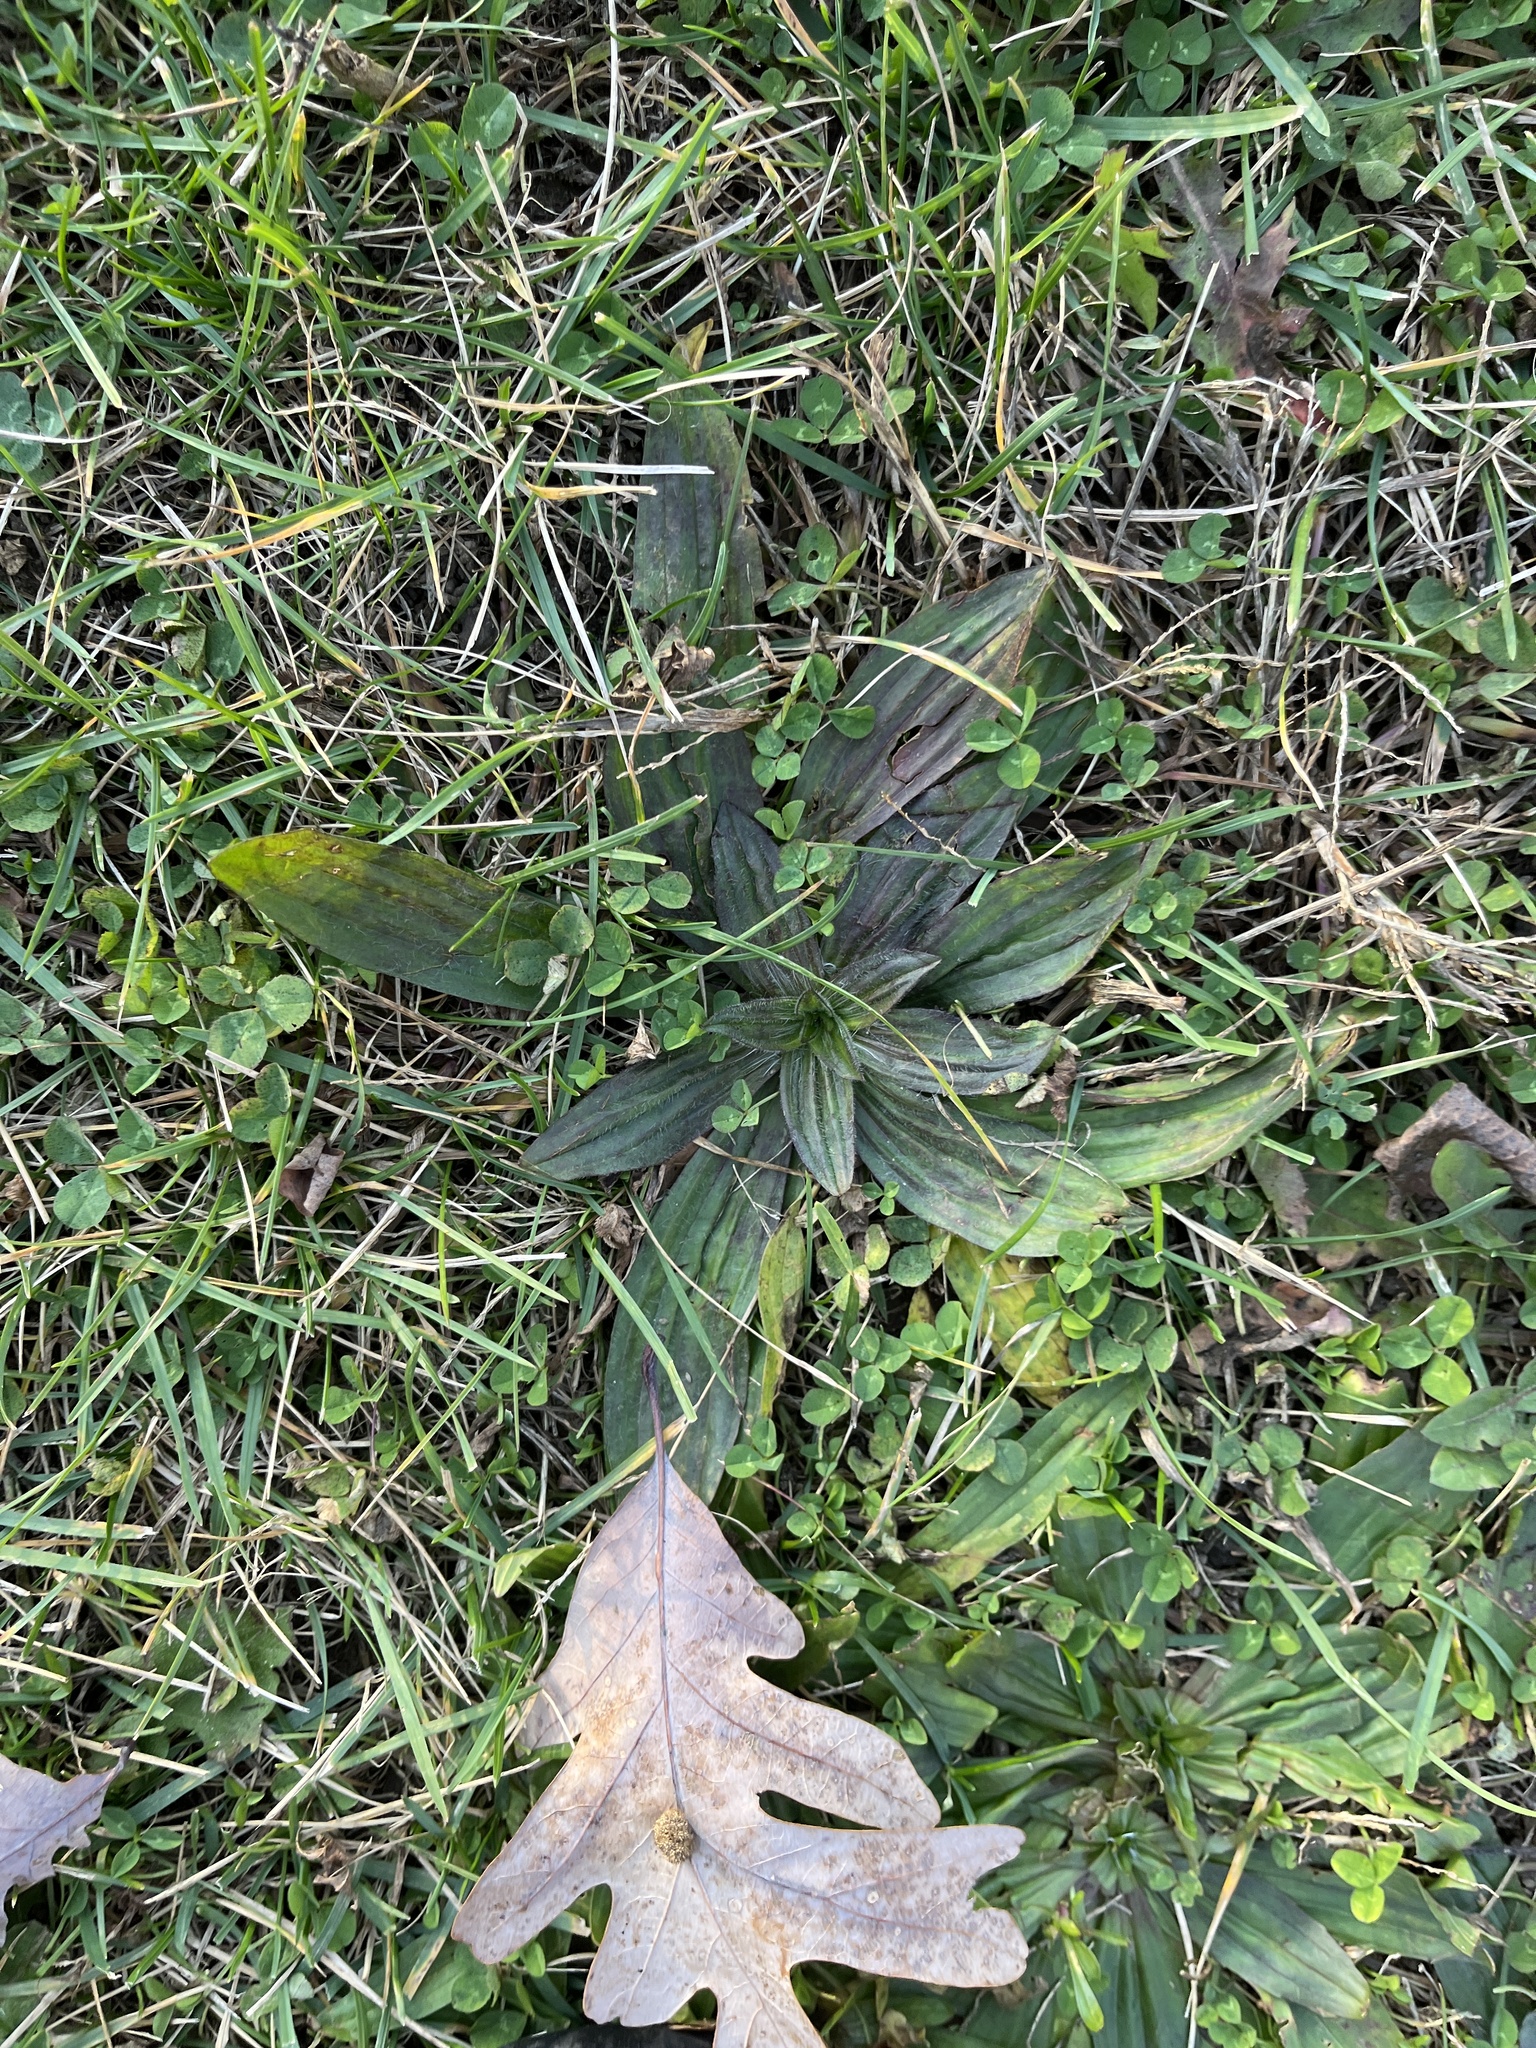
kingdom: Plantae
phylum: Tracheophyta
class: Magnoliopsida
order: Lamiales
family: Plantaginaceae
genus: Plantago
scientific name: Plantago lanceolata
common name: Ribwort plantain
